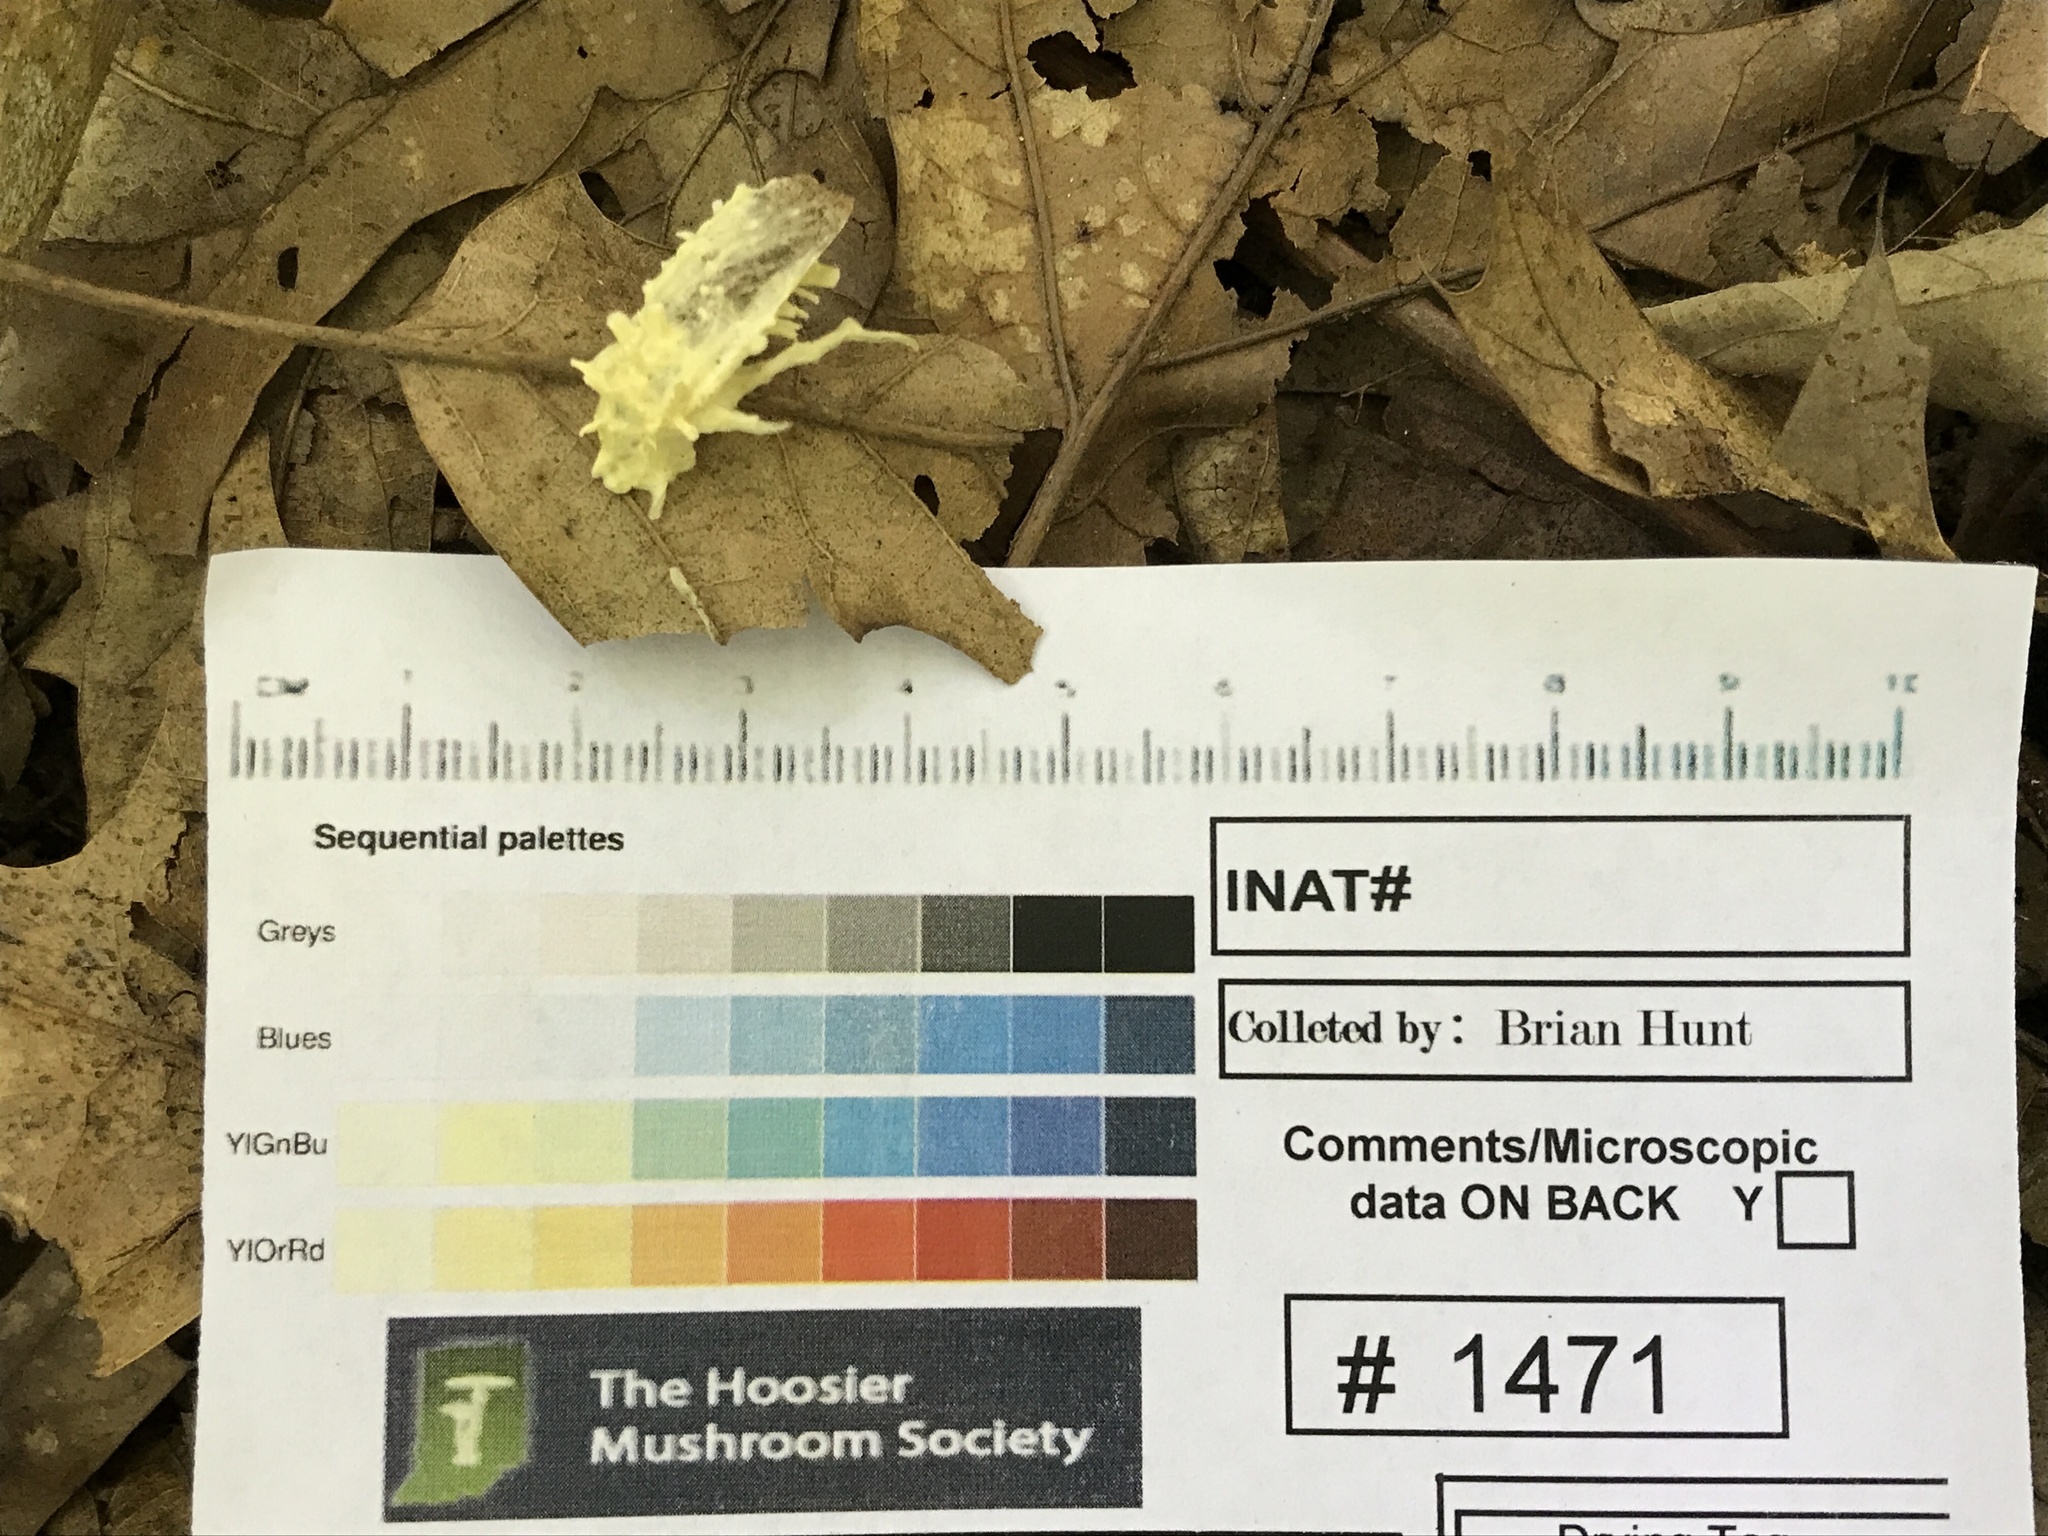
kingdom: Fungi
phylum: Ascomycota
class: Sordariomycetes
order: Hypocreales
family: Cordycipitaceae
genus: Akanthomyces
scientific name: Akanthomyces aculeatus
